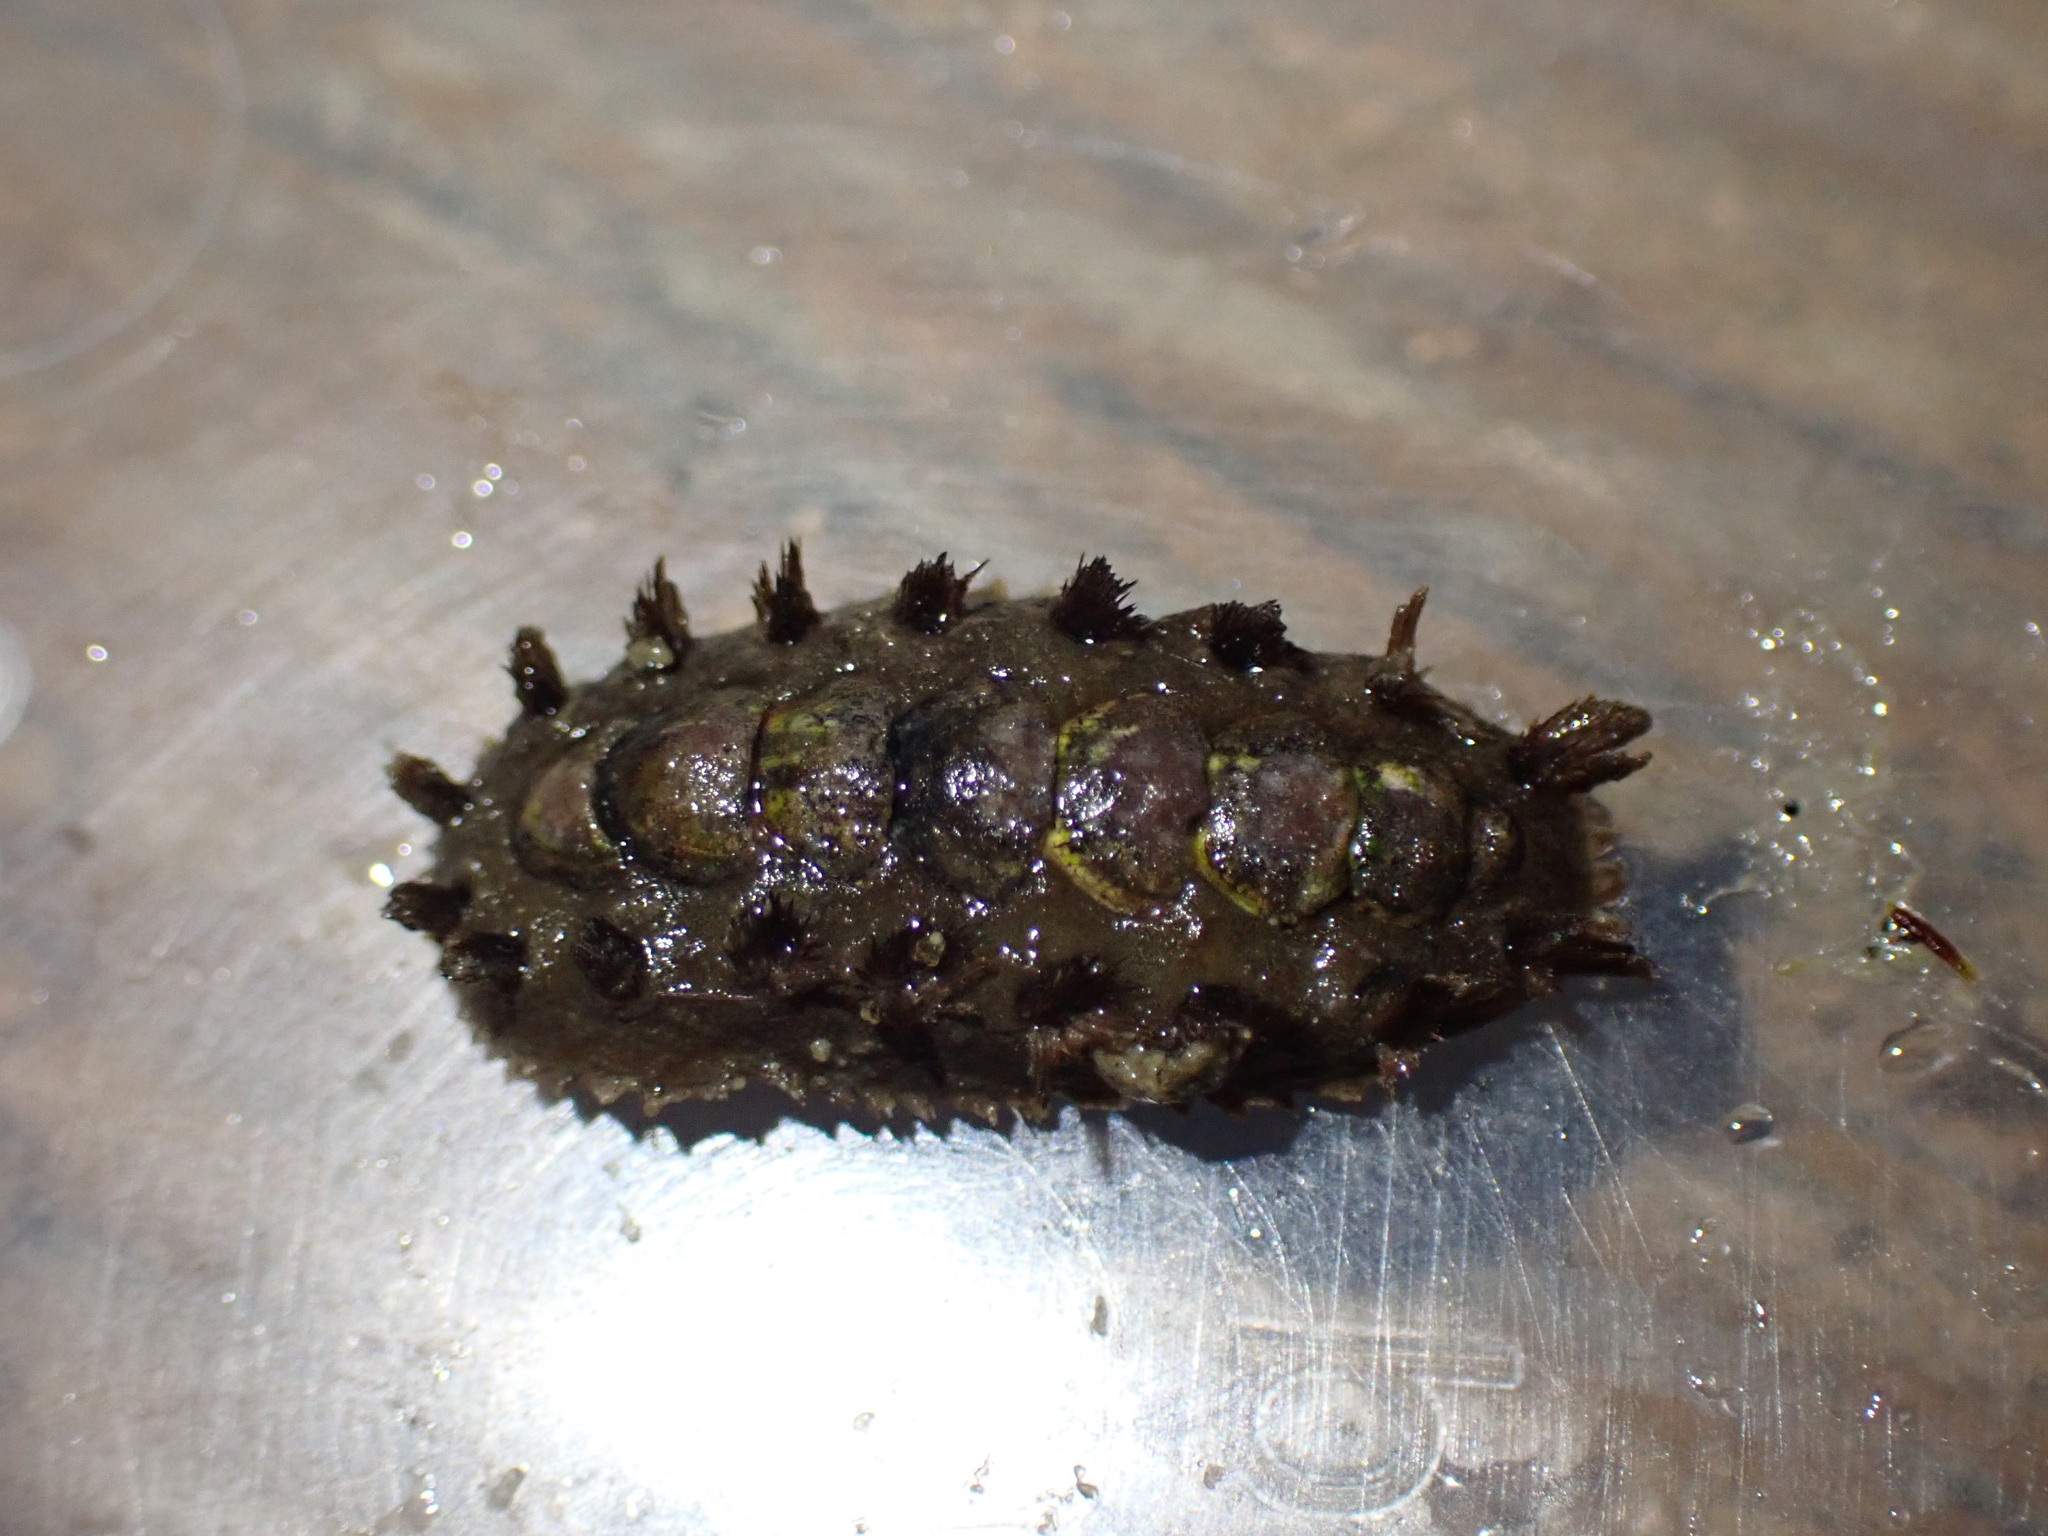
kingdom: Animalia
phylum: Mollusca
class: Polyplacophora
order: Chitonida
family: Acanthochitonidae
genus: Acanthochitona
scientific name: Acanthochitona zelandica
